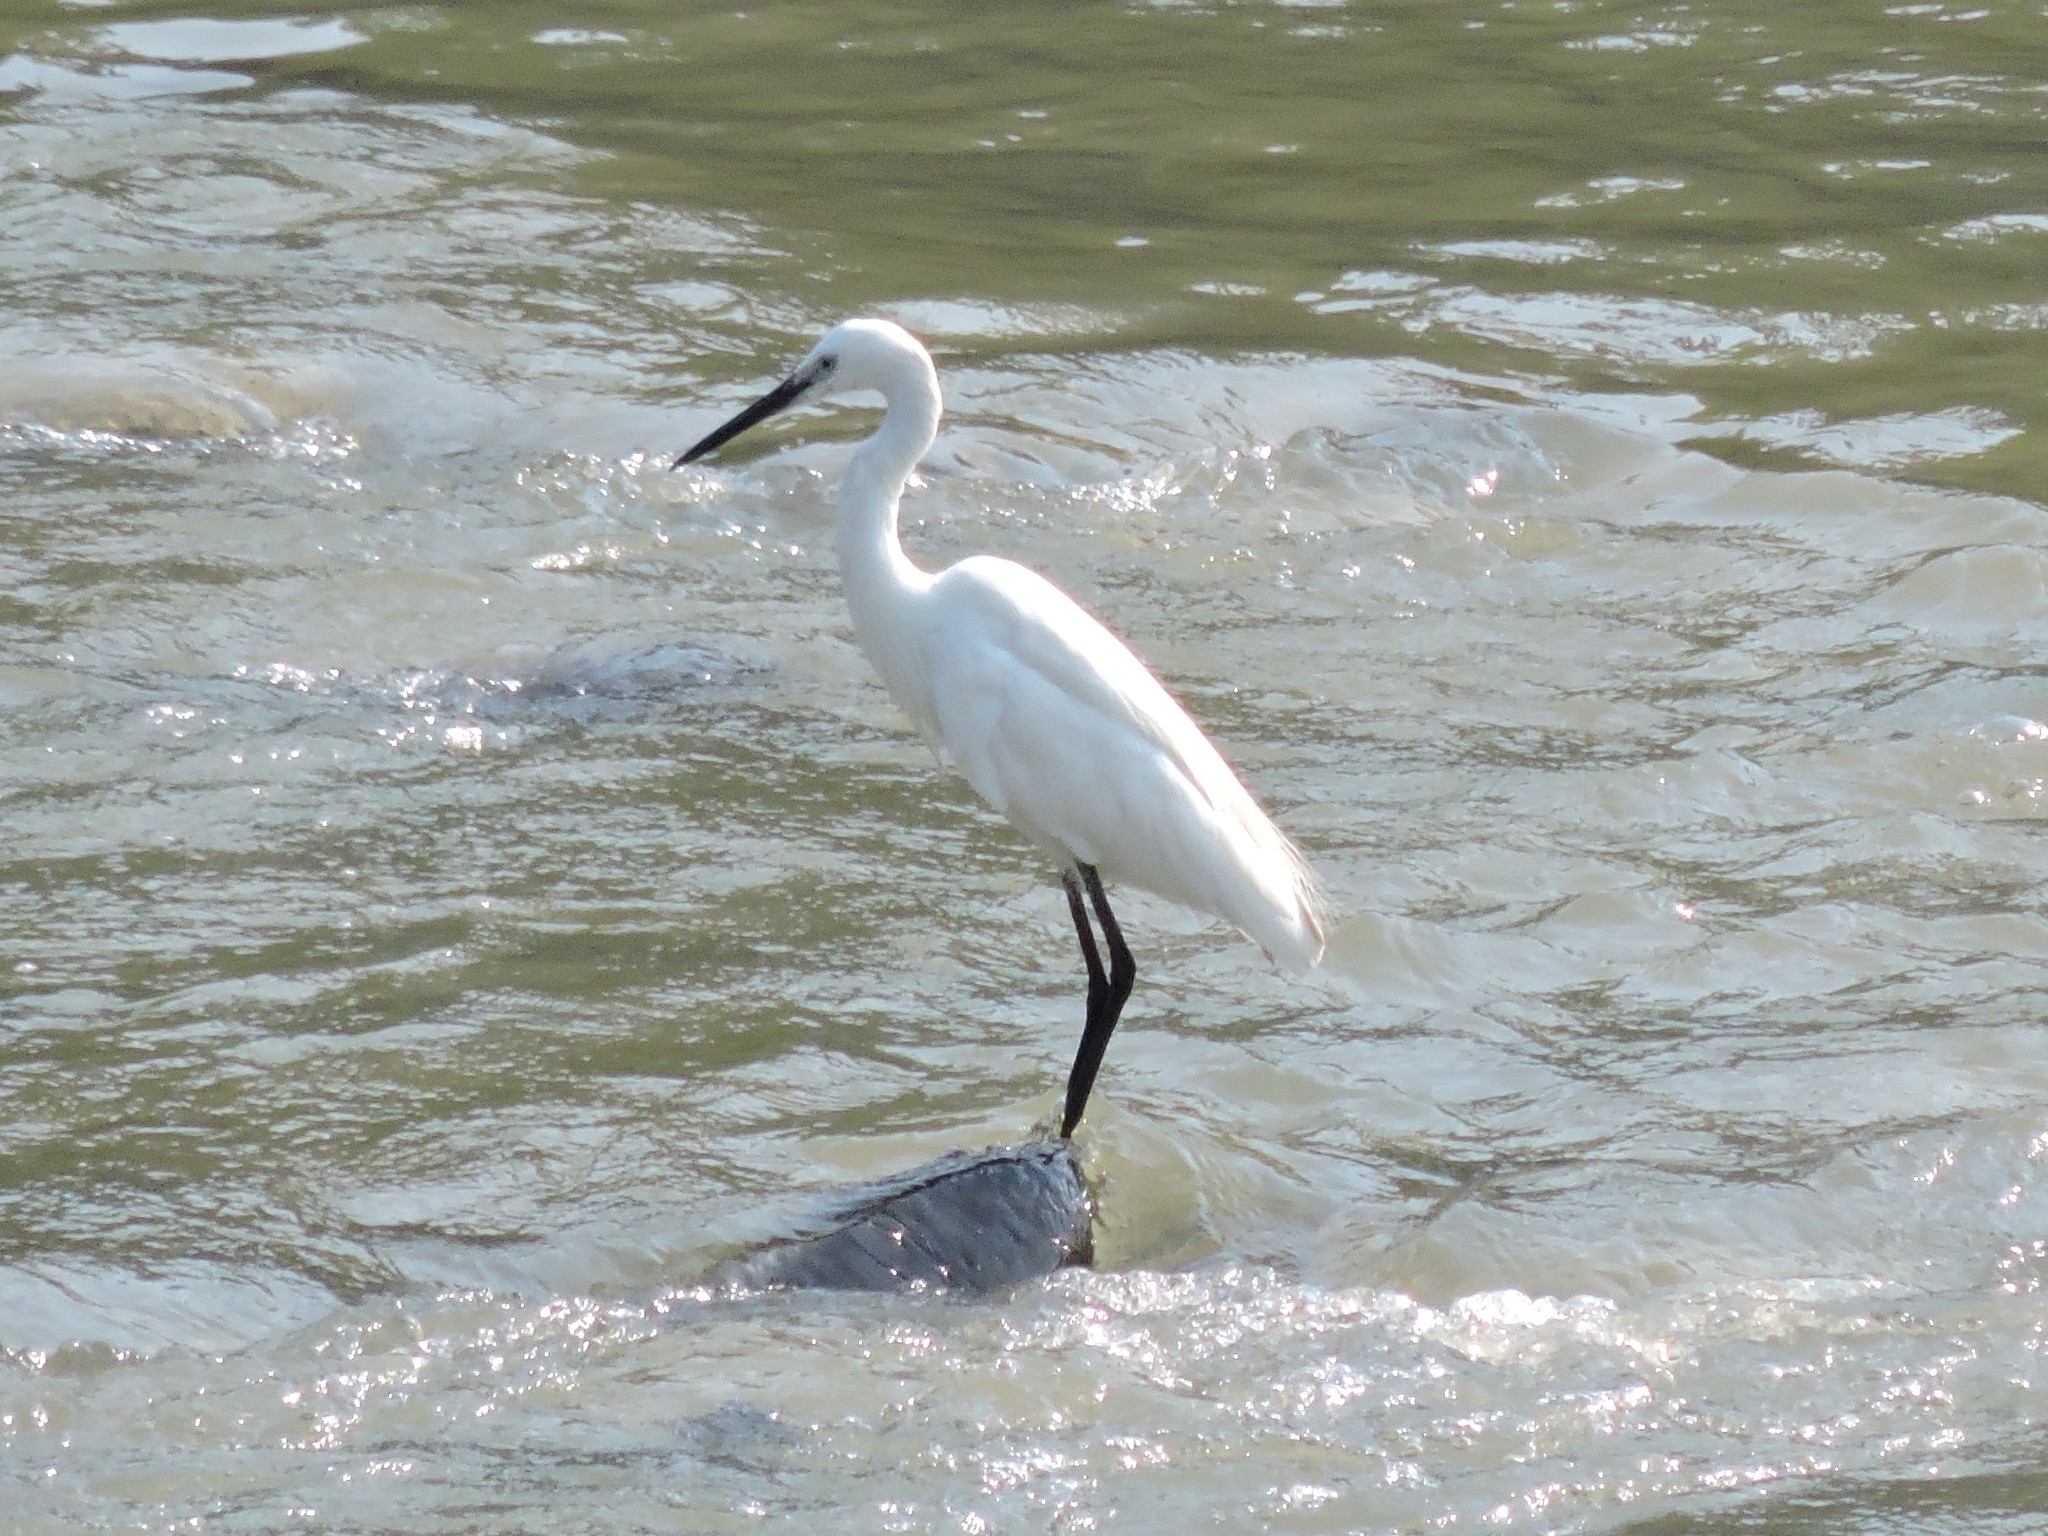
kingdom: Animalia
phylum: Chordata
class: Aves
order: Pelecaniformes
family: Ardeidae
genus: Egretta
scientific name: Egretta garzetta
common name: Little egret
